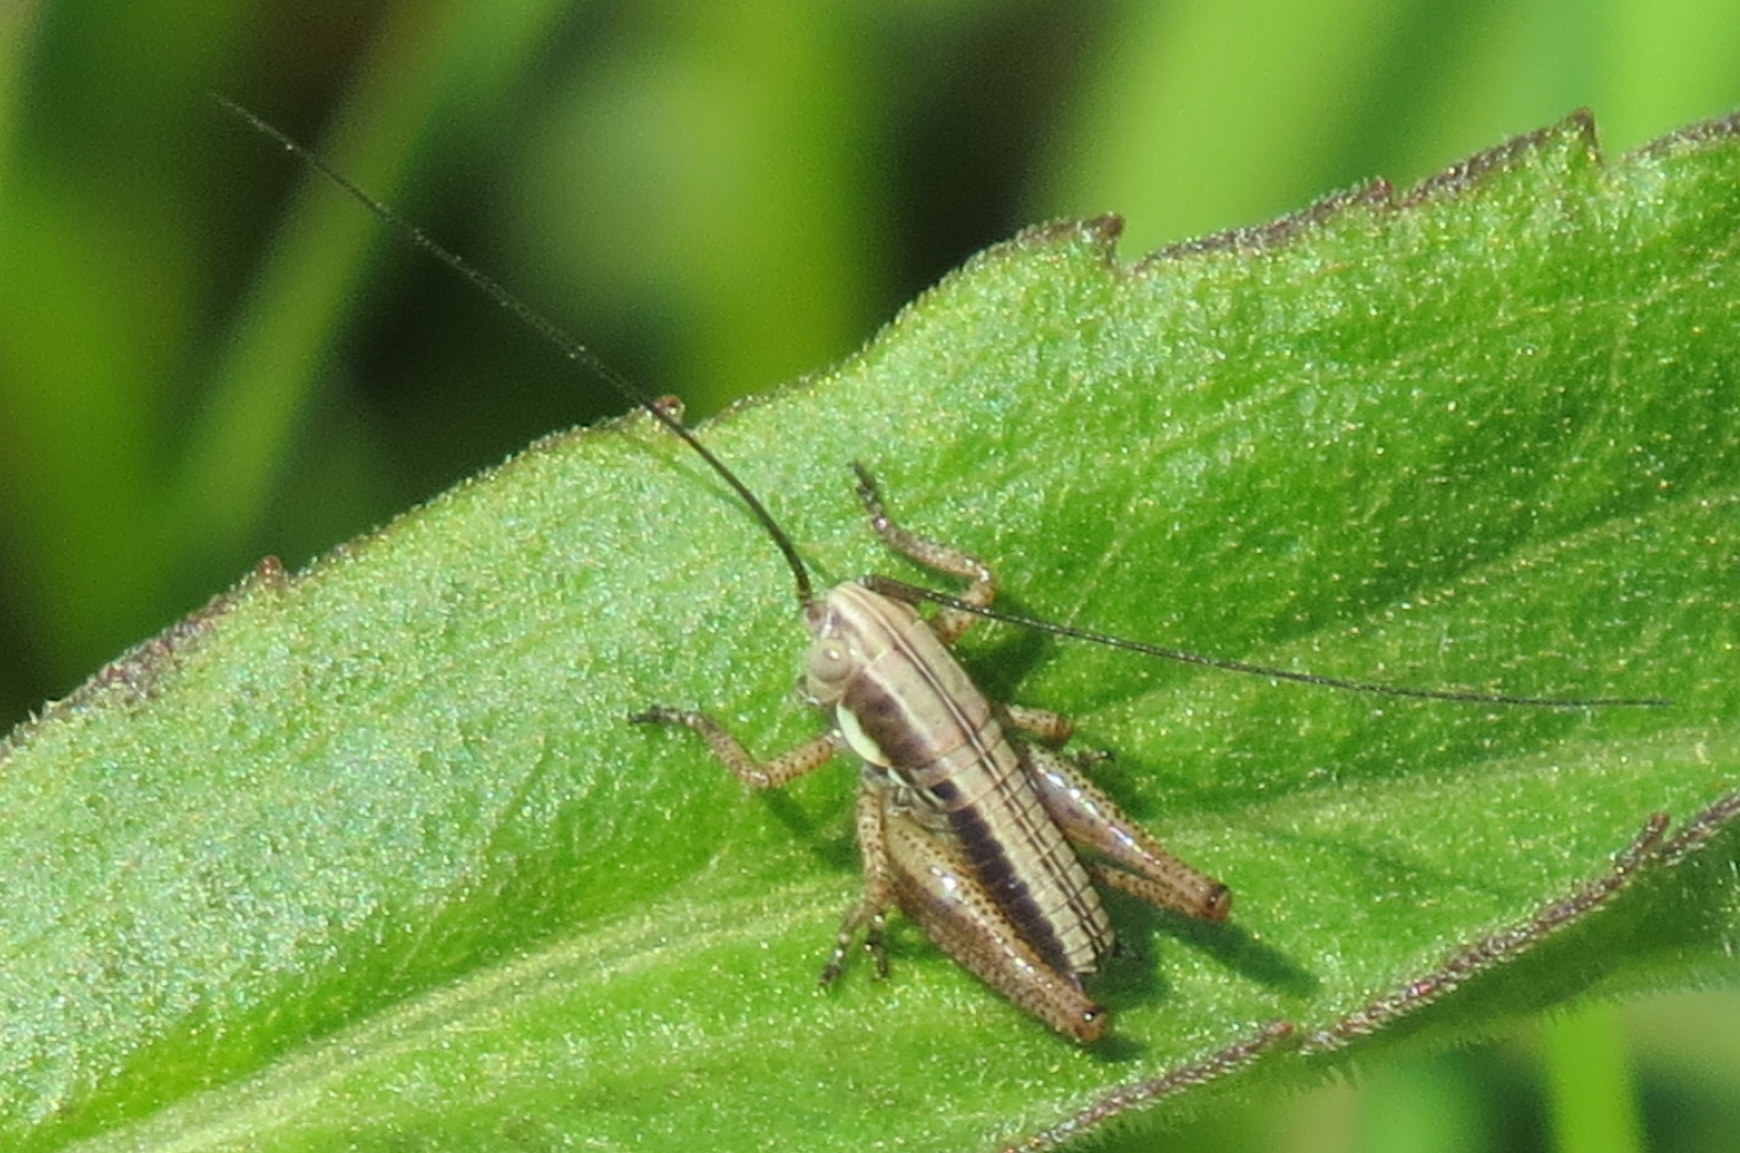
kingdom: Animalia
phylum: Arthropoda
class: Insecta
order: Orthoptera
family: Tettigoniidae
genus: Roeseliana
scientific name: Roeseliana roeselii
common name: Roesel's bush cricket
